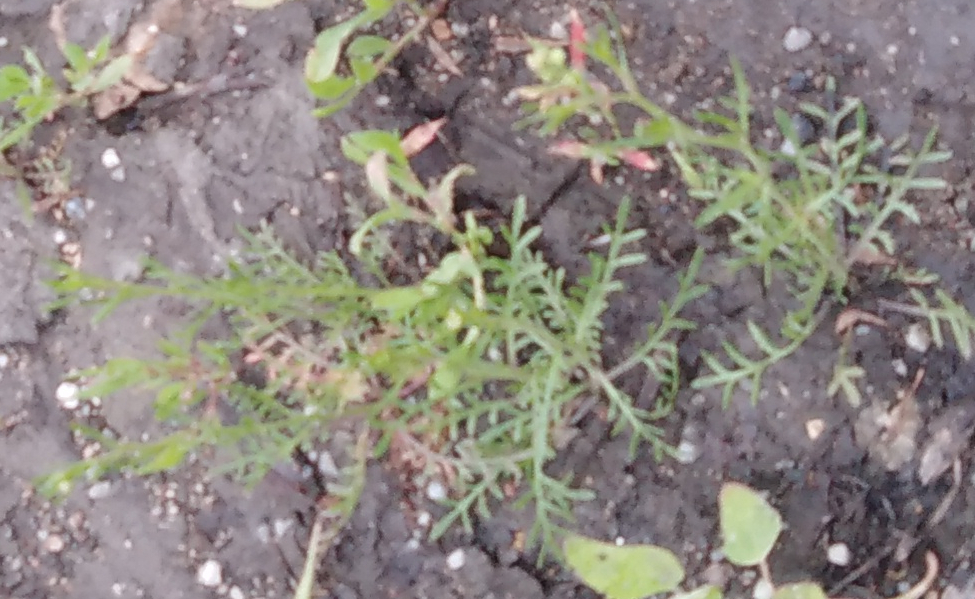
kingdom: Plantae
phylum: Tracheophyta
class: Magnoliopsida
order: Brassicales
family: Brassicaceae
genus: Lepidium
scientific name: Lepidium ruderale
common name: Narrow-leaved pepperwort
